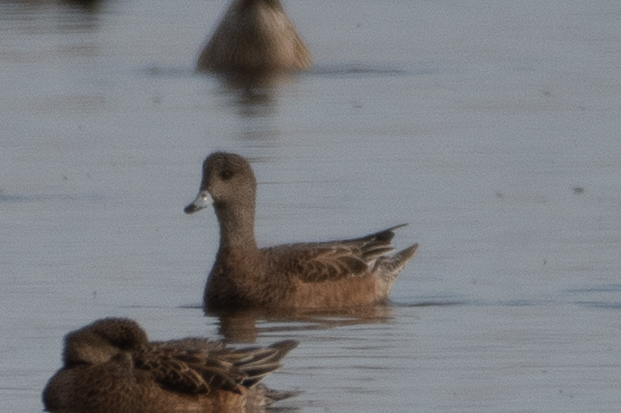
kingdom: Animalia
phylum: Chordata
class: Aves
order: Anseriformes
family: Anatidae
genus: Mareca
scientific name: Mareca americana
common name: American wigeon
